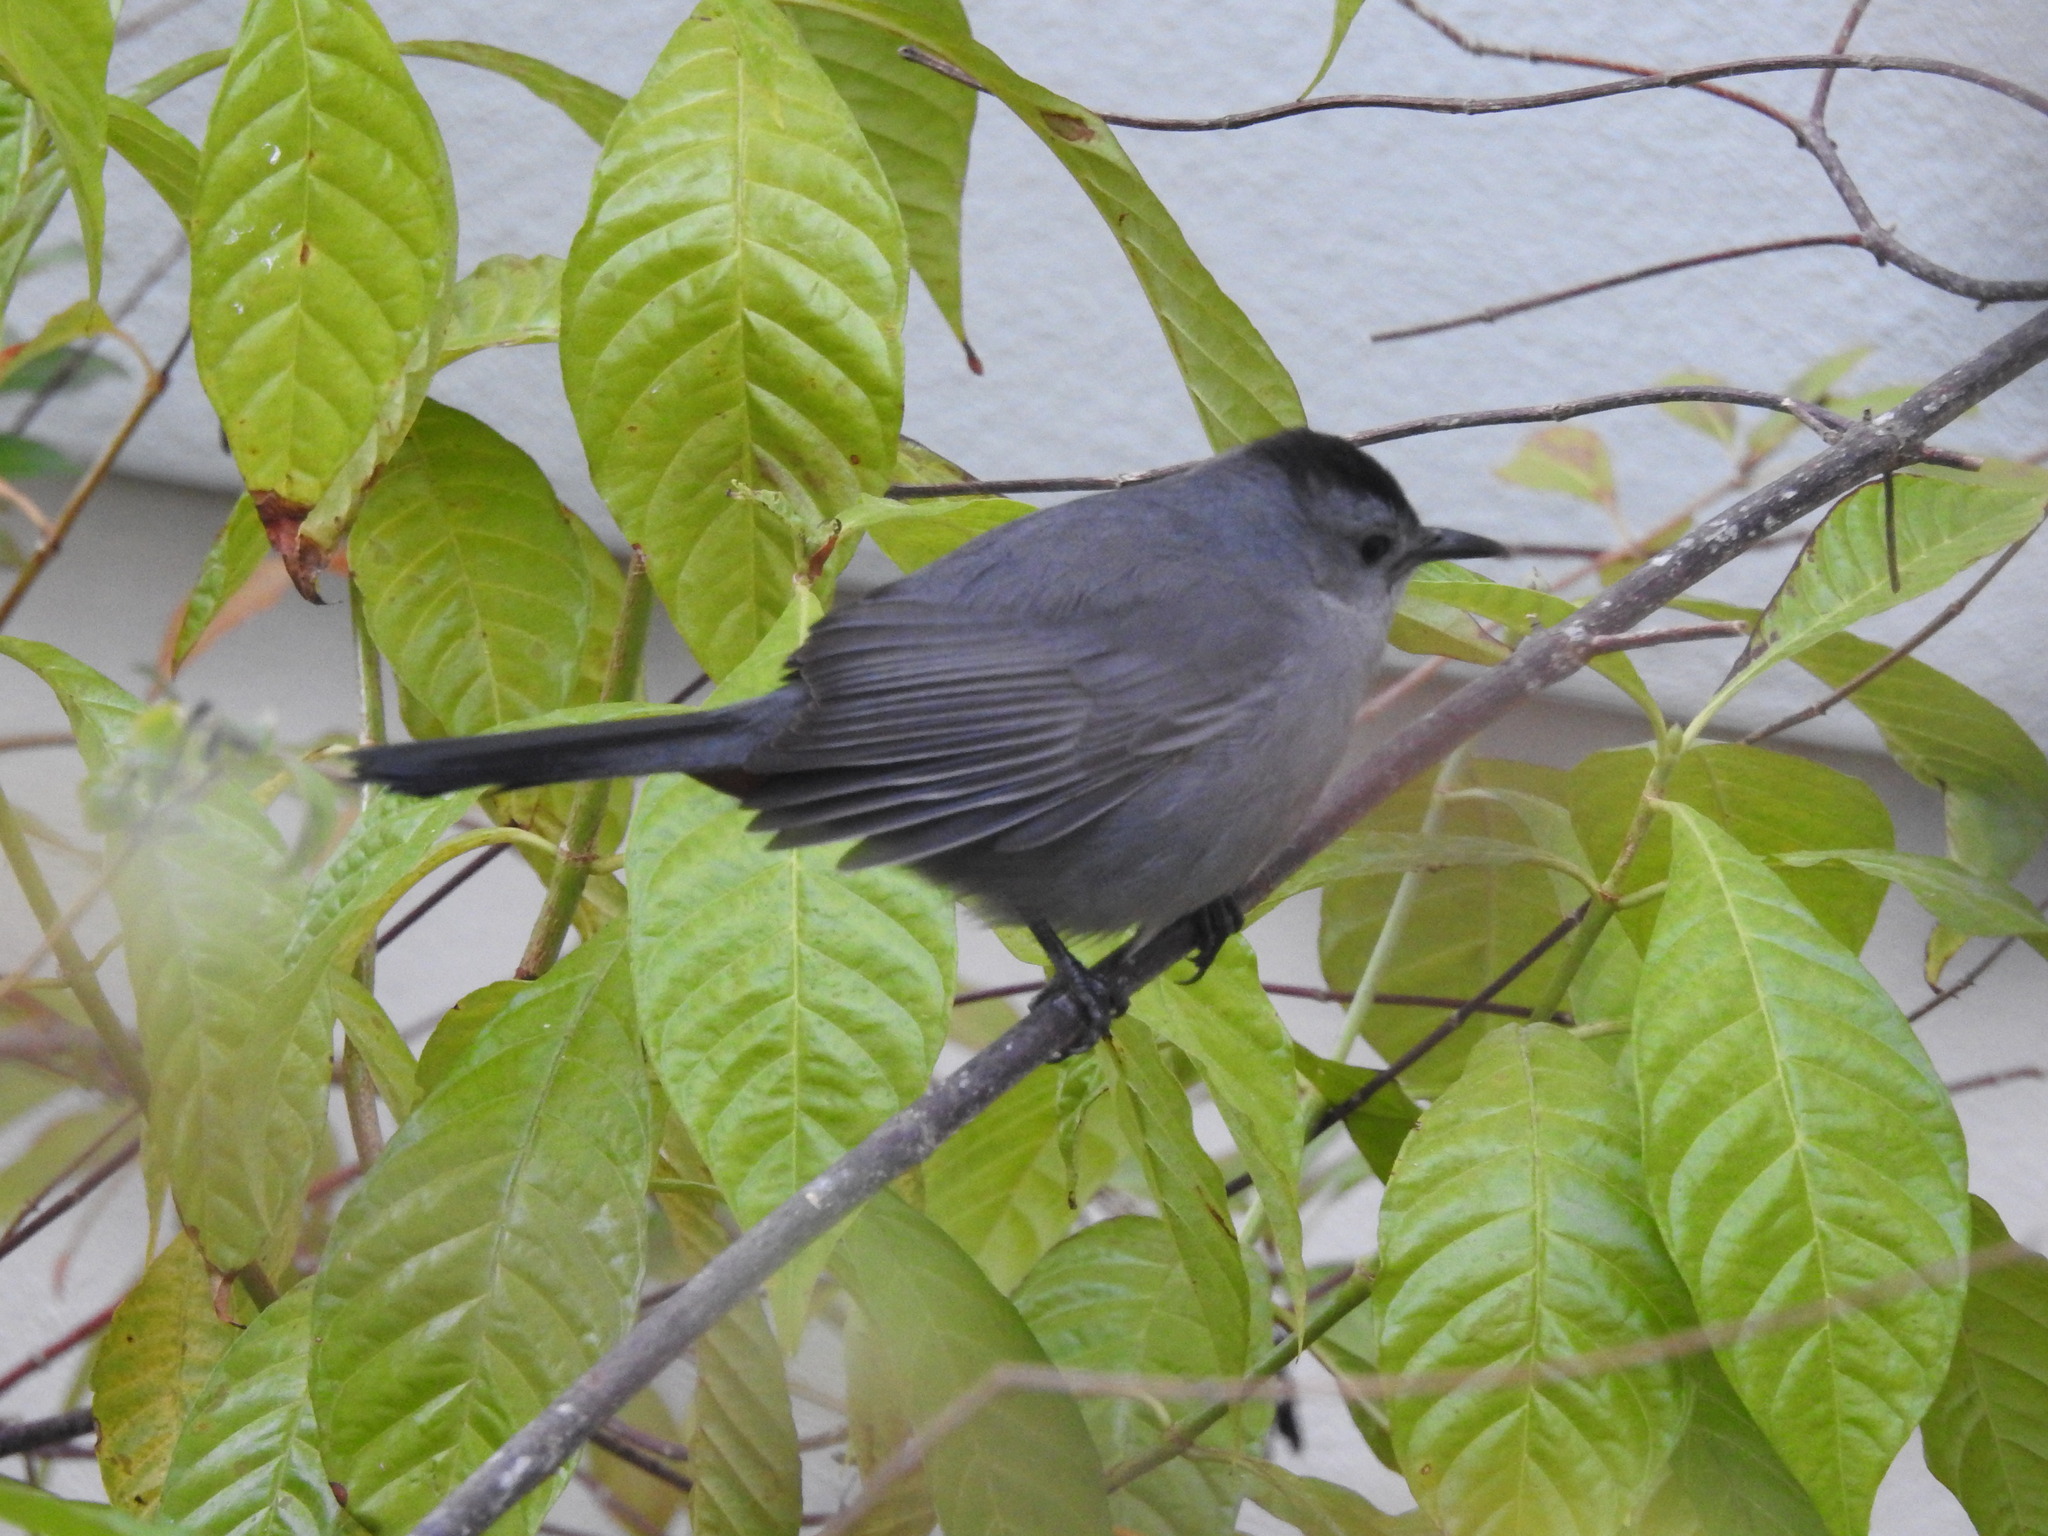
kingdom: Animalia
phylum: Chordata
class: Aves
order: Passeriformes
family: Mimidae
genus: Dumetella
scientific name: Dumetella carolinensis
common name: Gray catbird
